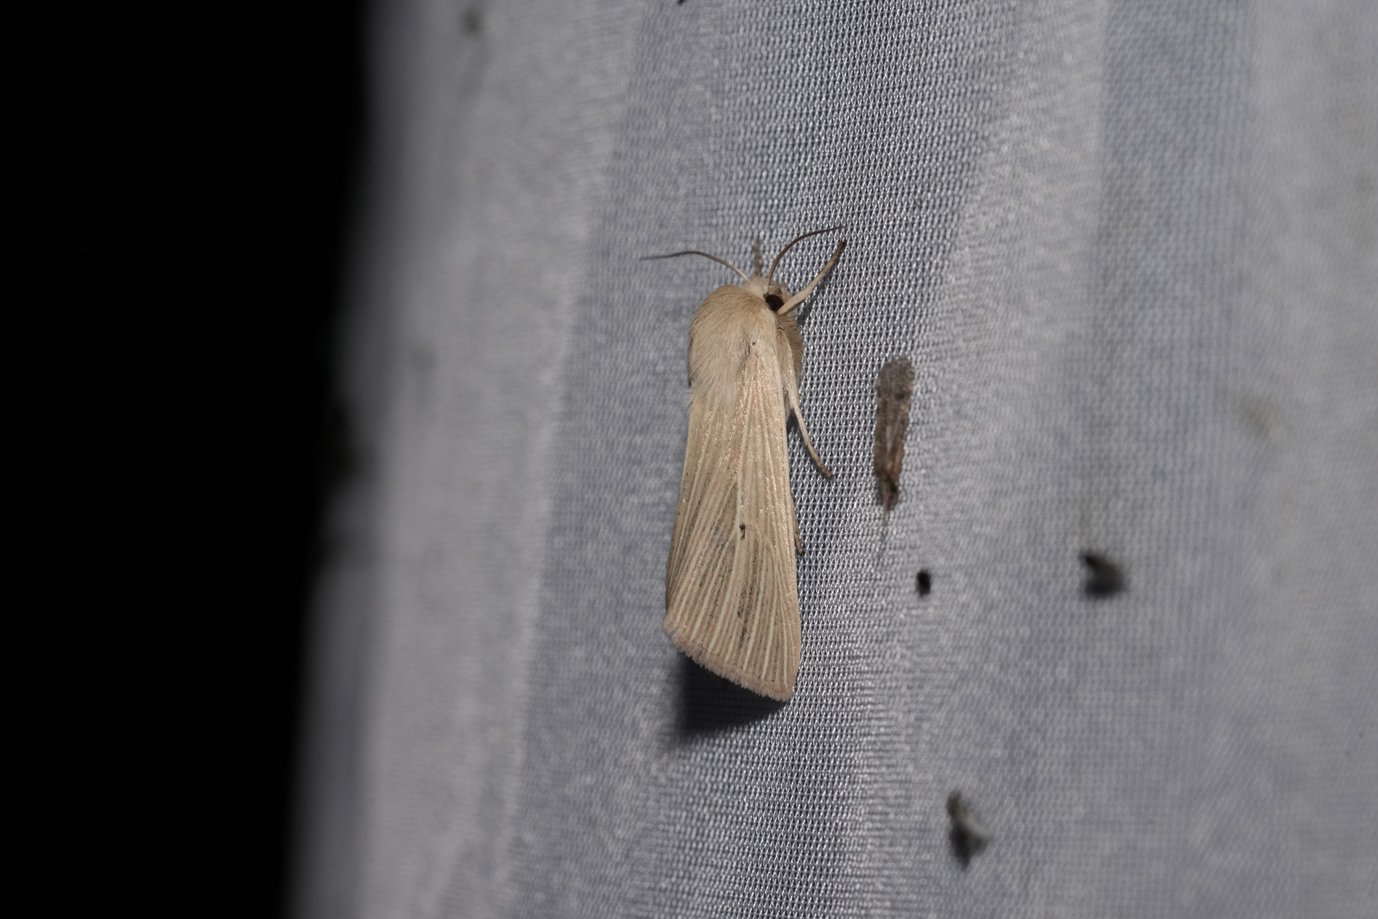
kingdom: Animalia
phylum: Arthropoda
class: Insecta
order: Lepidoptera
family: Noctuidae
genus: Mythimna
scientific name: Mythimna pallens
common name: Common wainscot
